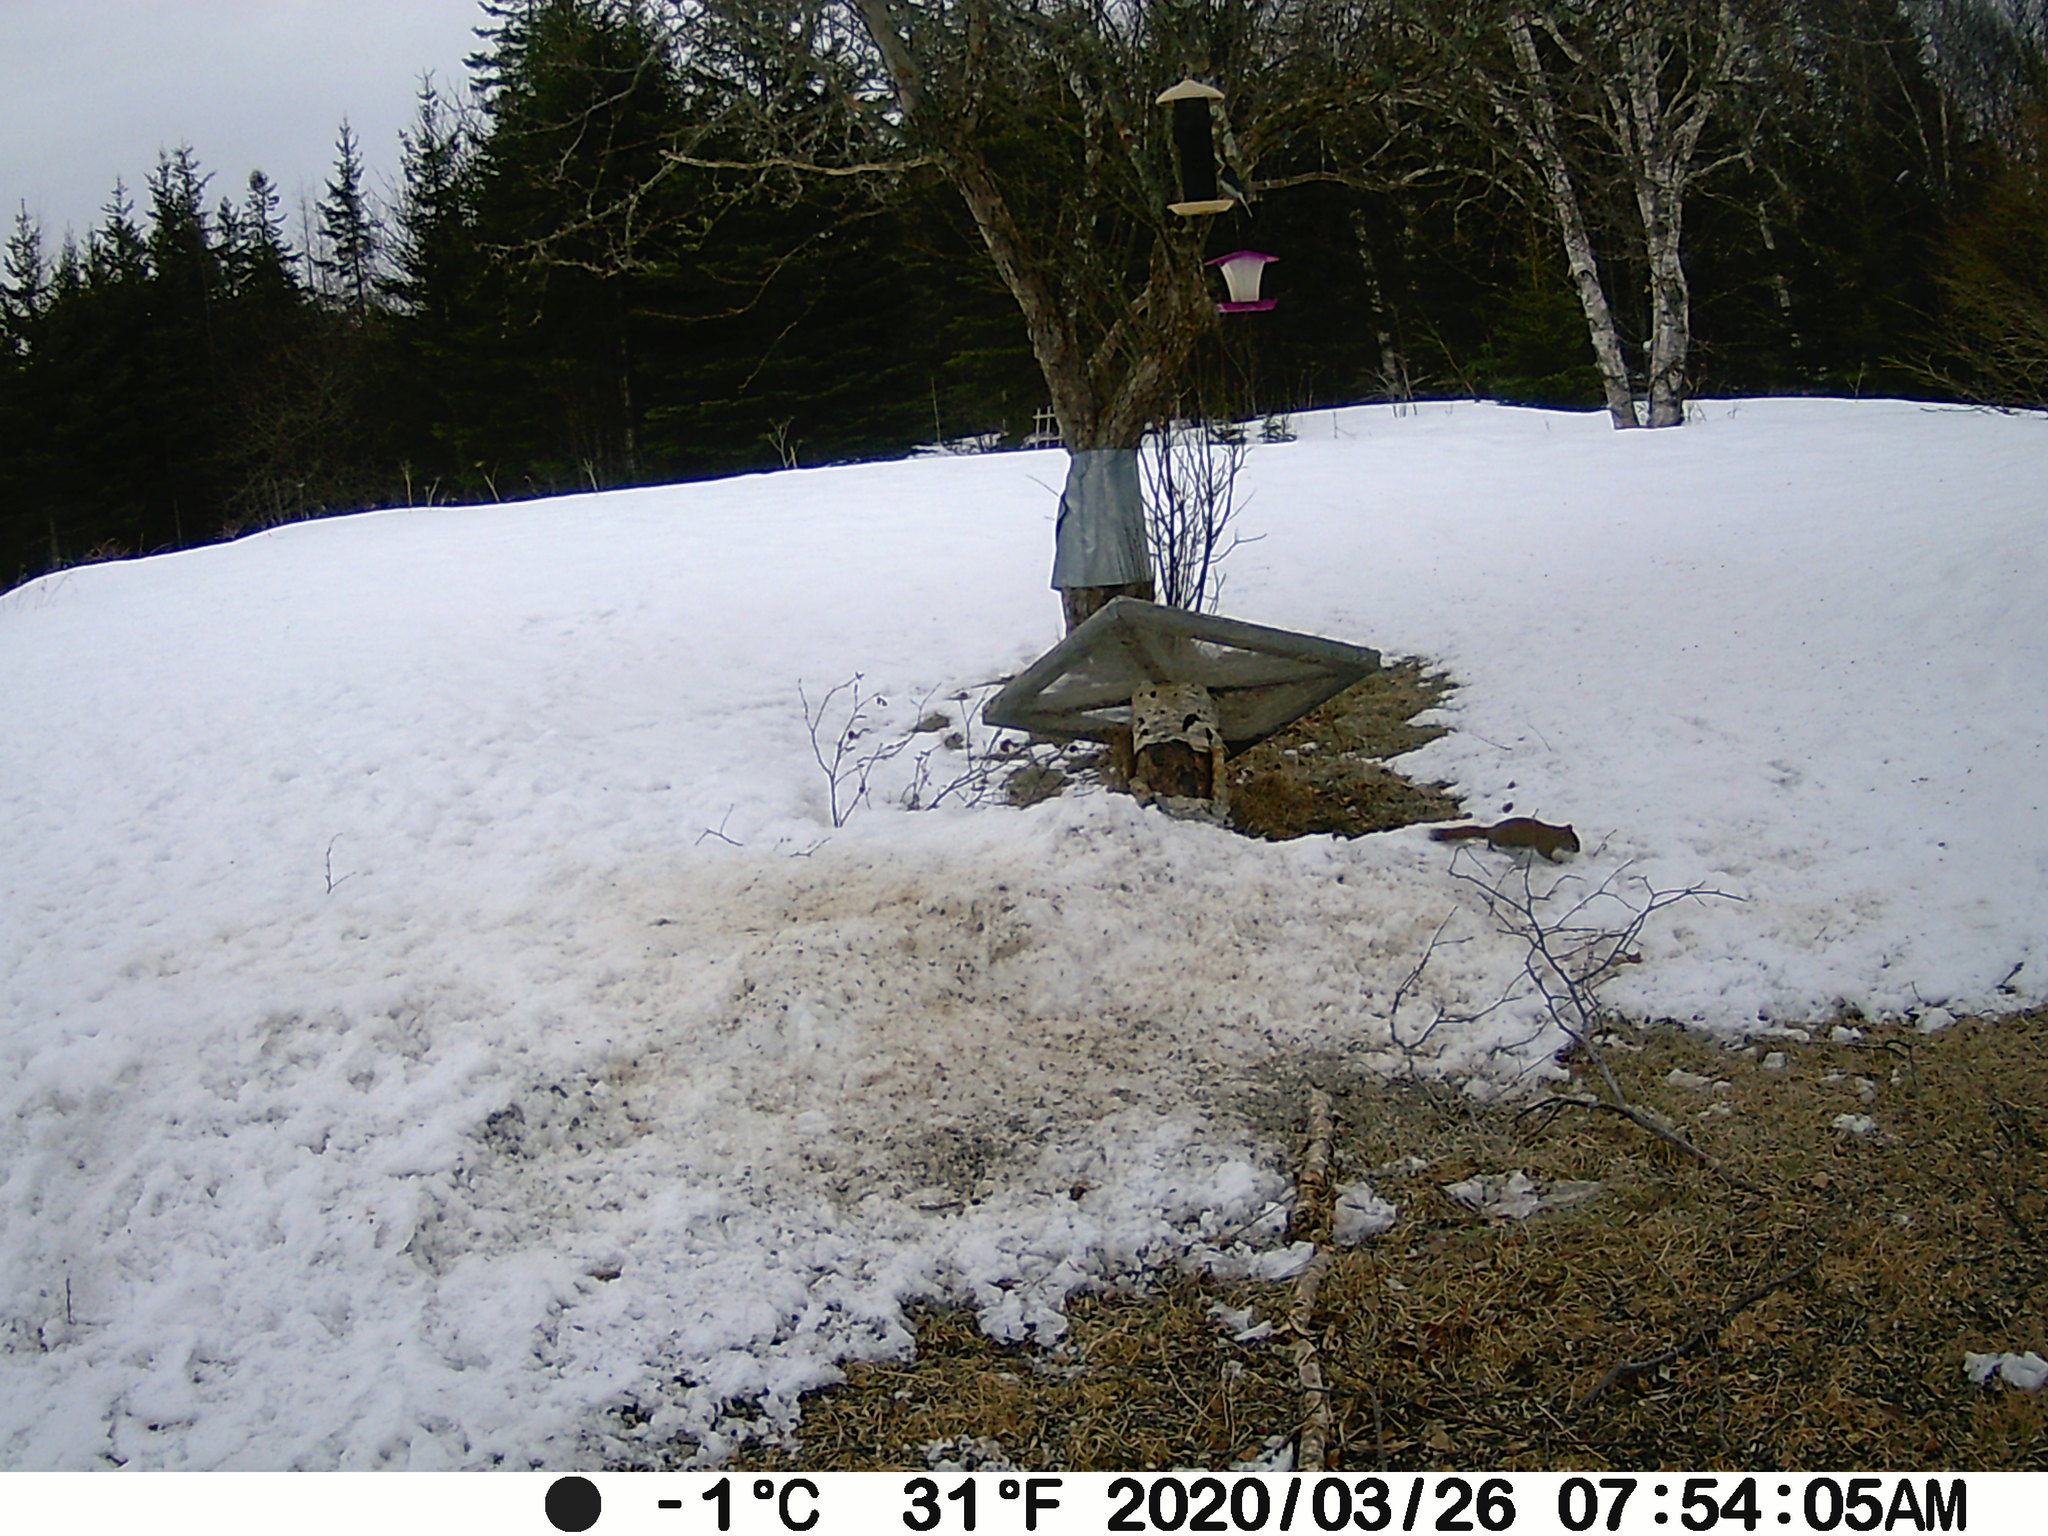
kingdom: Animalia
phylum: Chordata
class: Mammalia
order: Rodentia
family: Sciuridae
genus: Tamiasciurus
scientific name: Tamiasciurus hudsonicus
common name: Red squirrel
